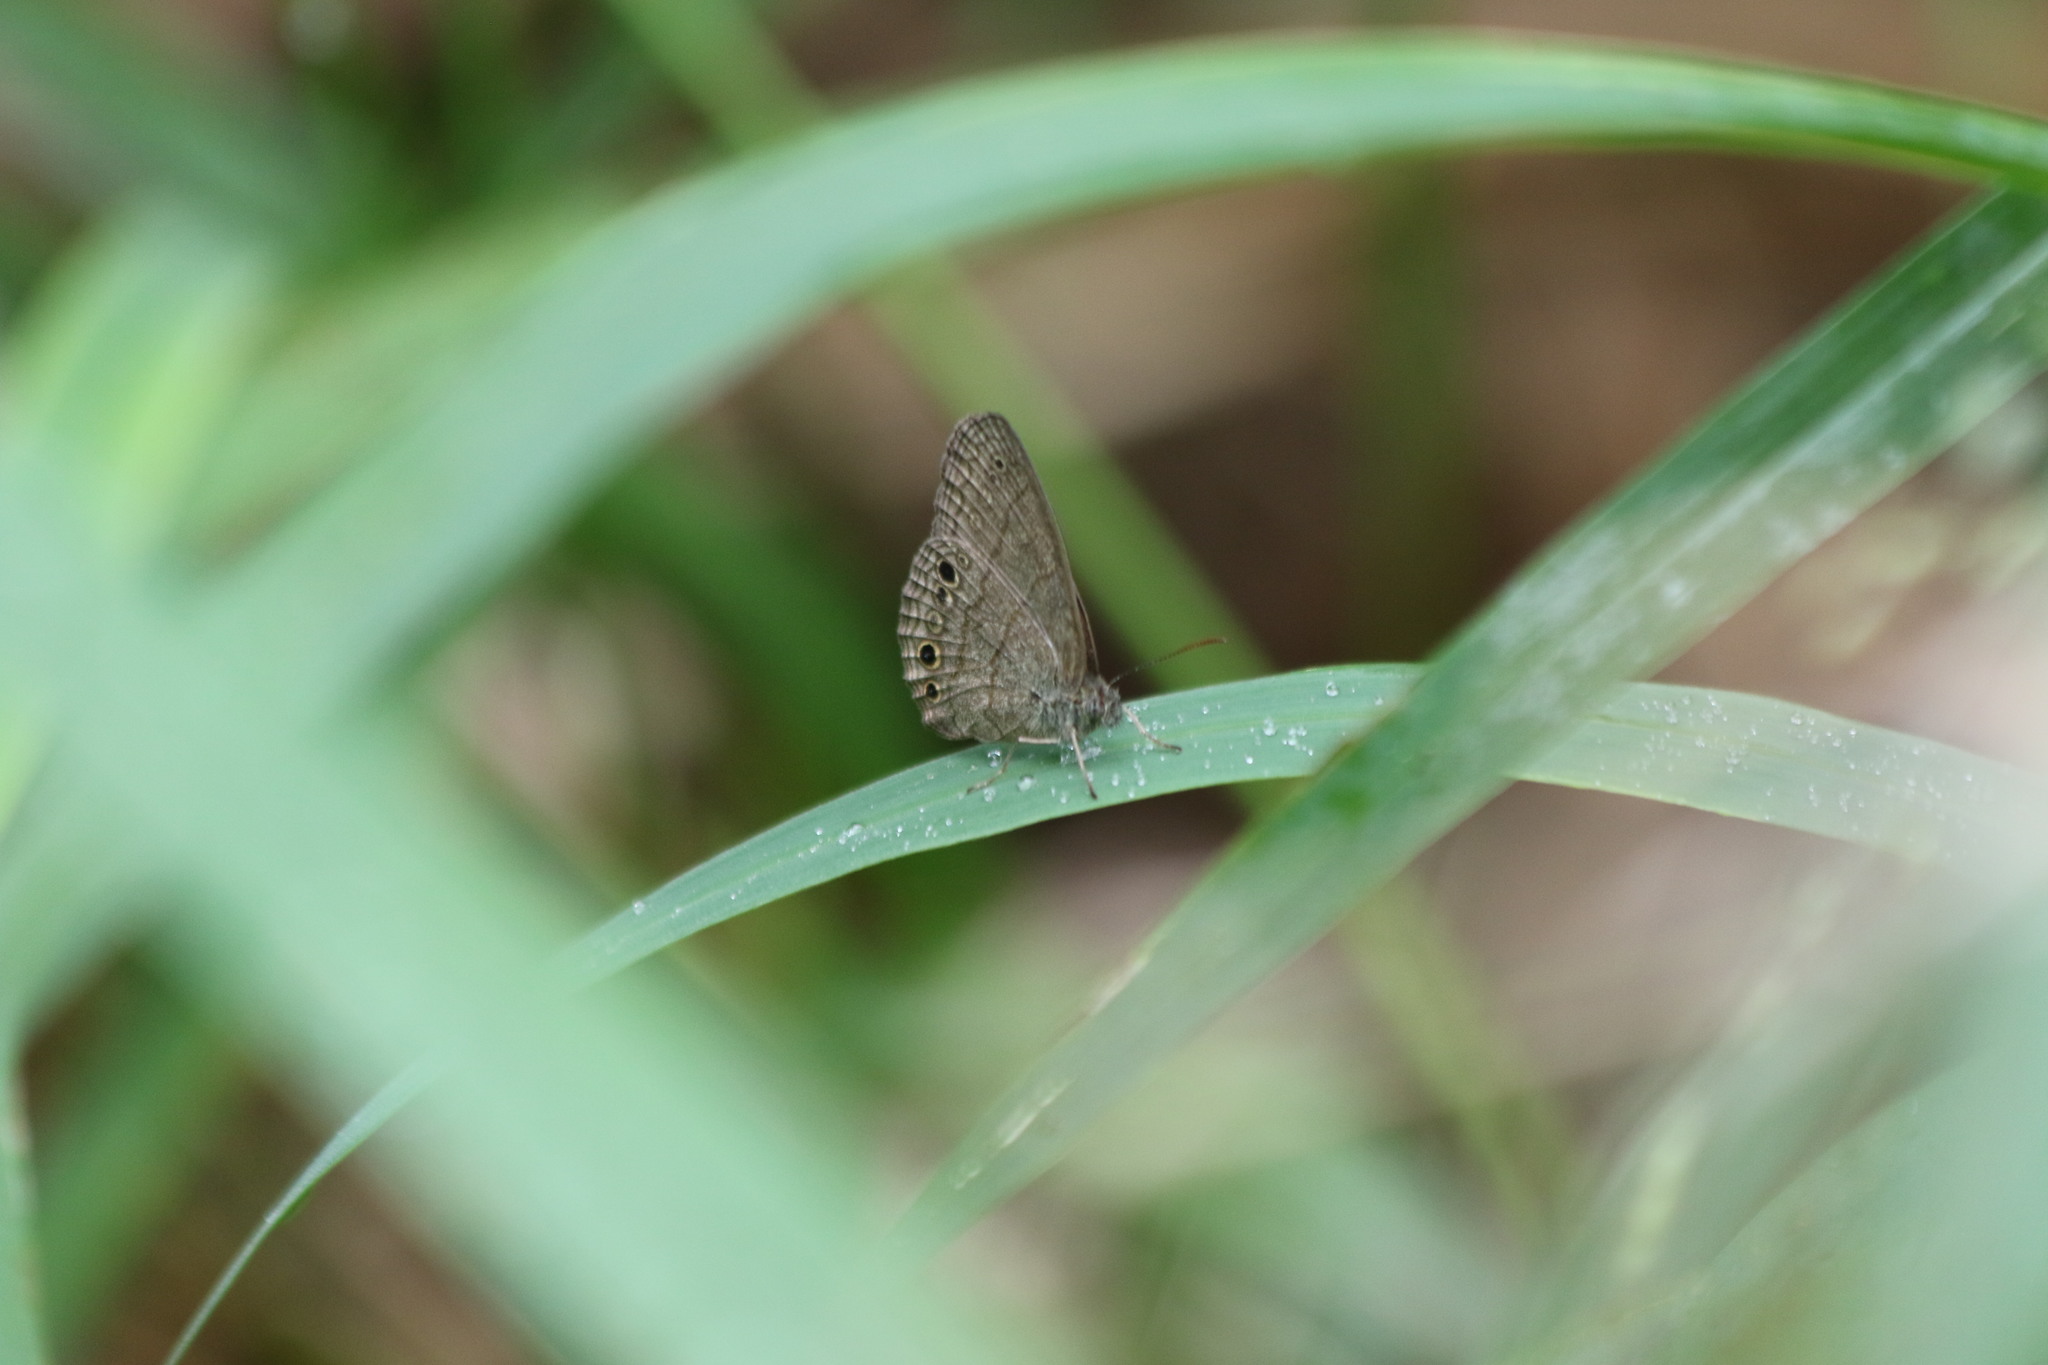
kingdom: Animalia
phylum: Arthropoda
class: Insecta
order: Lepidoptera
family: Nymphalidae
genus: Hermeuptychia
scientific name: Hermeuptychia hermybius
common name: South texas satyr
